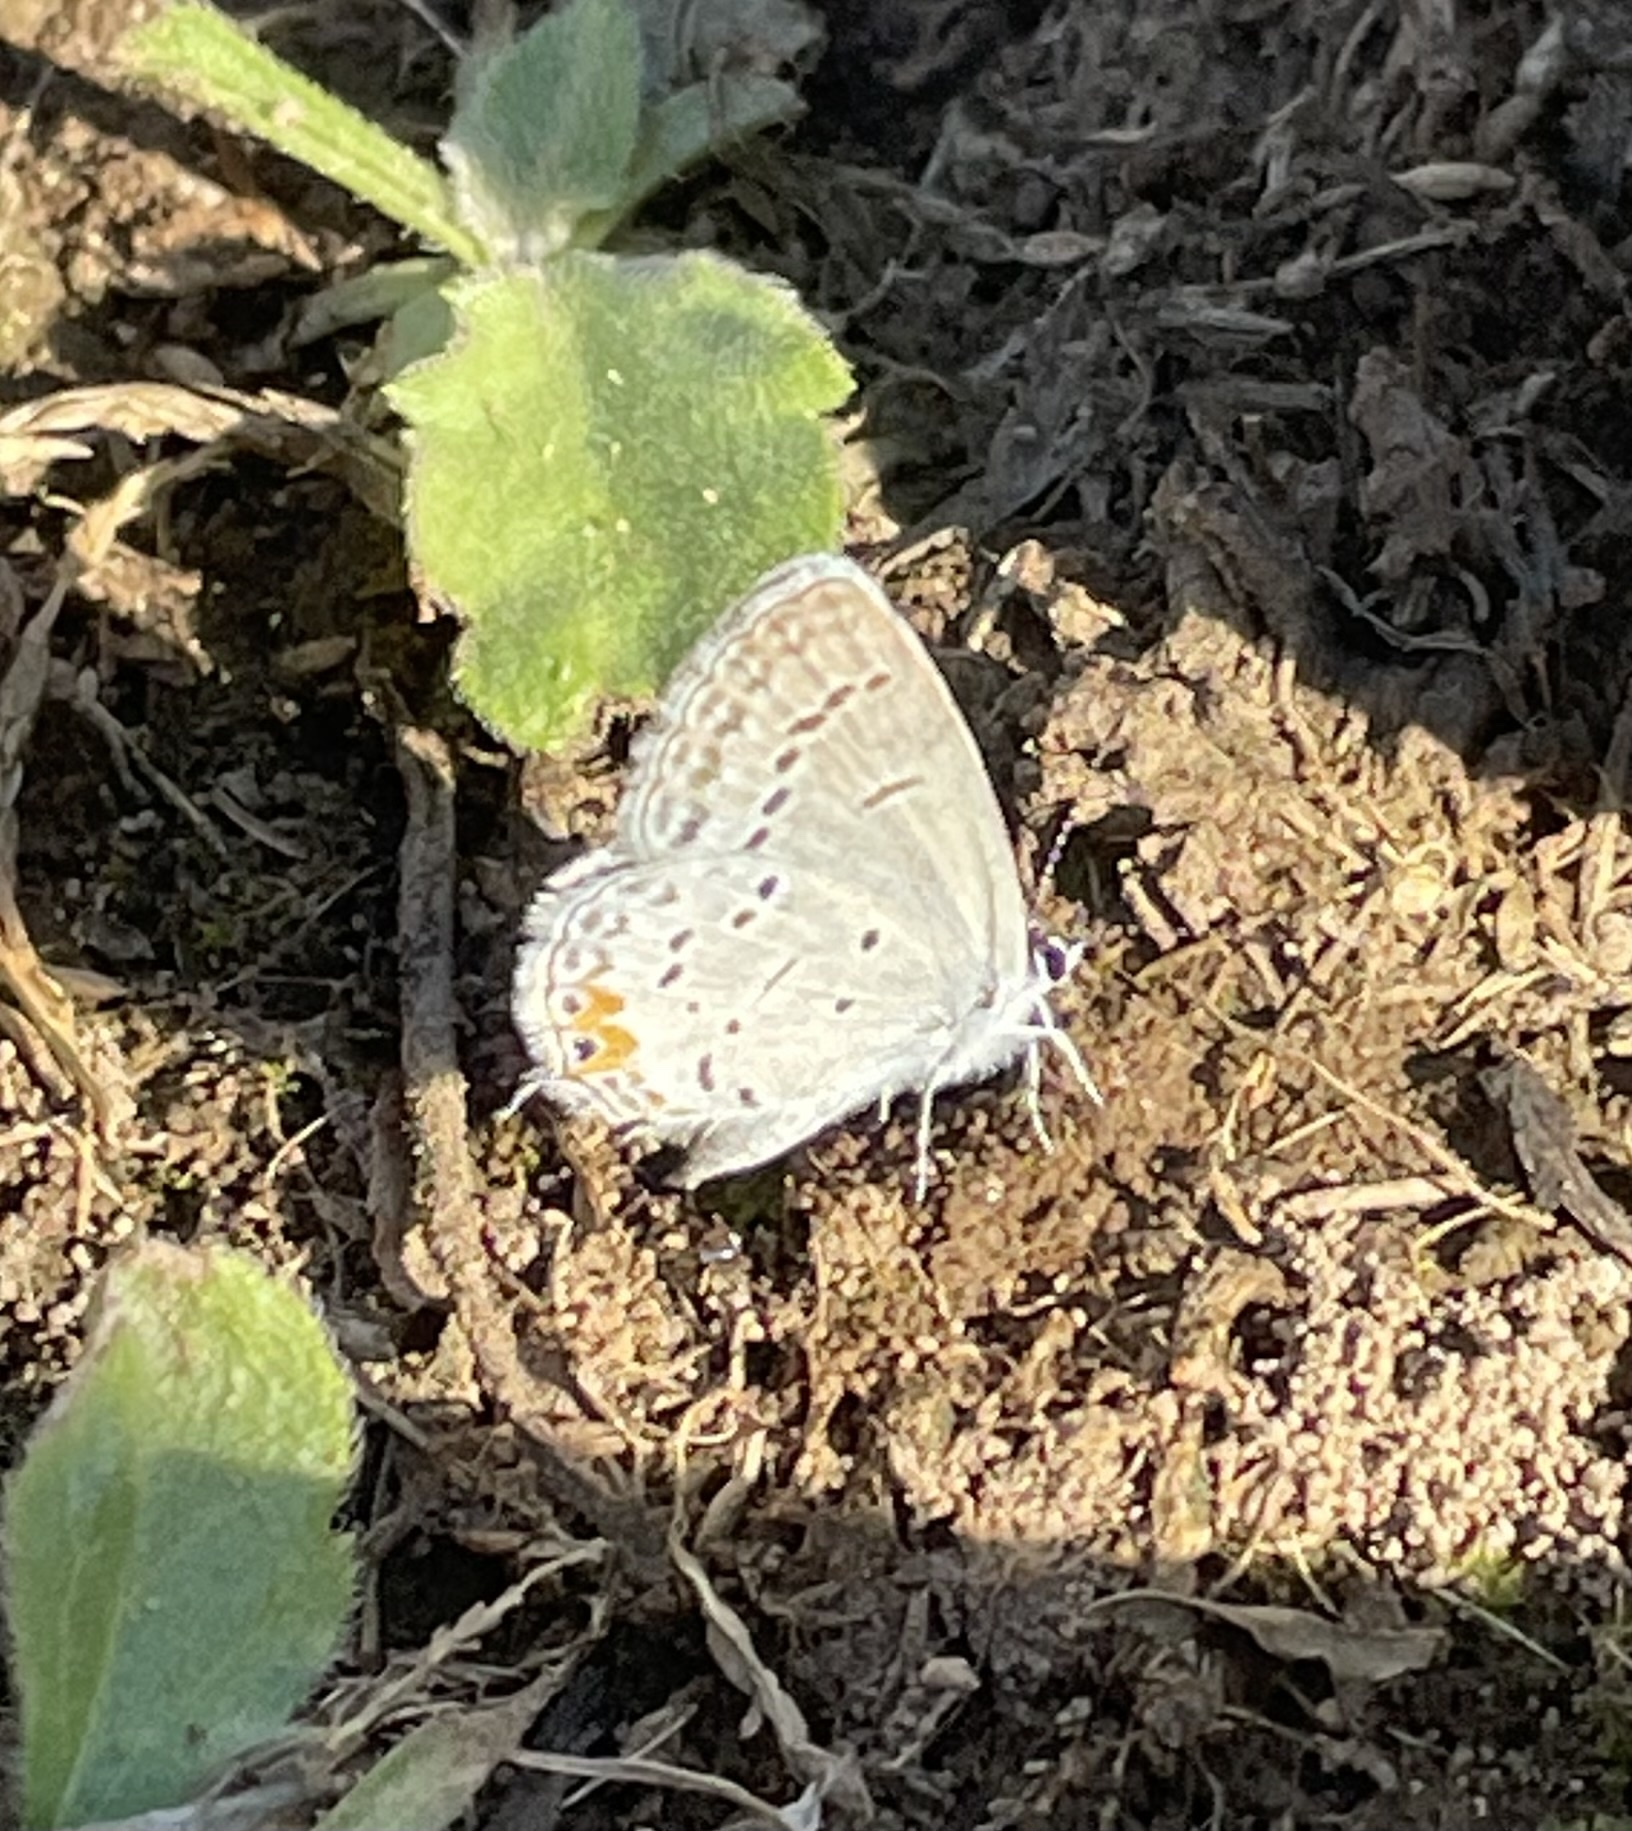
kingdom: Animalia
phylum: Arthropoda
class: Insecta
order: Lepidoptera
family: Lycaenidae
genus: Elkalyce
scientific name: Elkalyce comyntas
